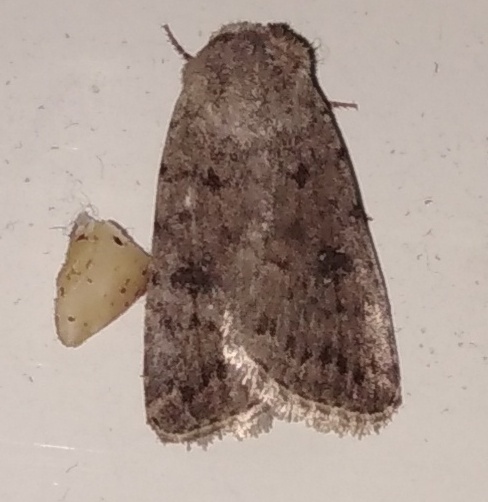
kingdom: Animalia
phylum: Arthropoda
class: Insecta
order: Lepidoptera
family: Noctuidae
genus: Caradrina
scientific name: Caradrina clavipalpis
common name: Pale mottled willow
